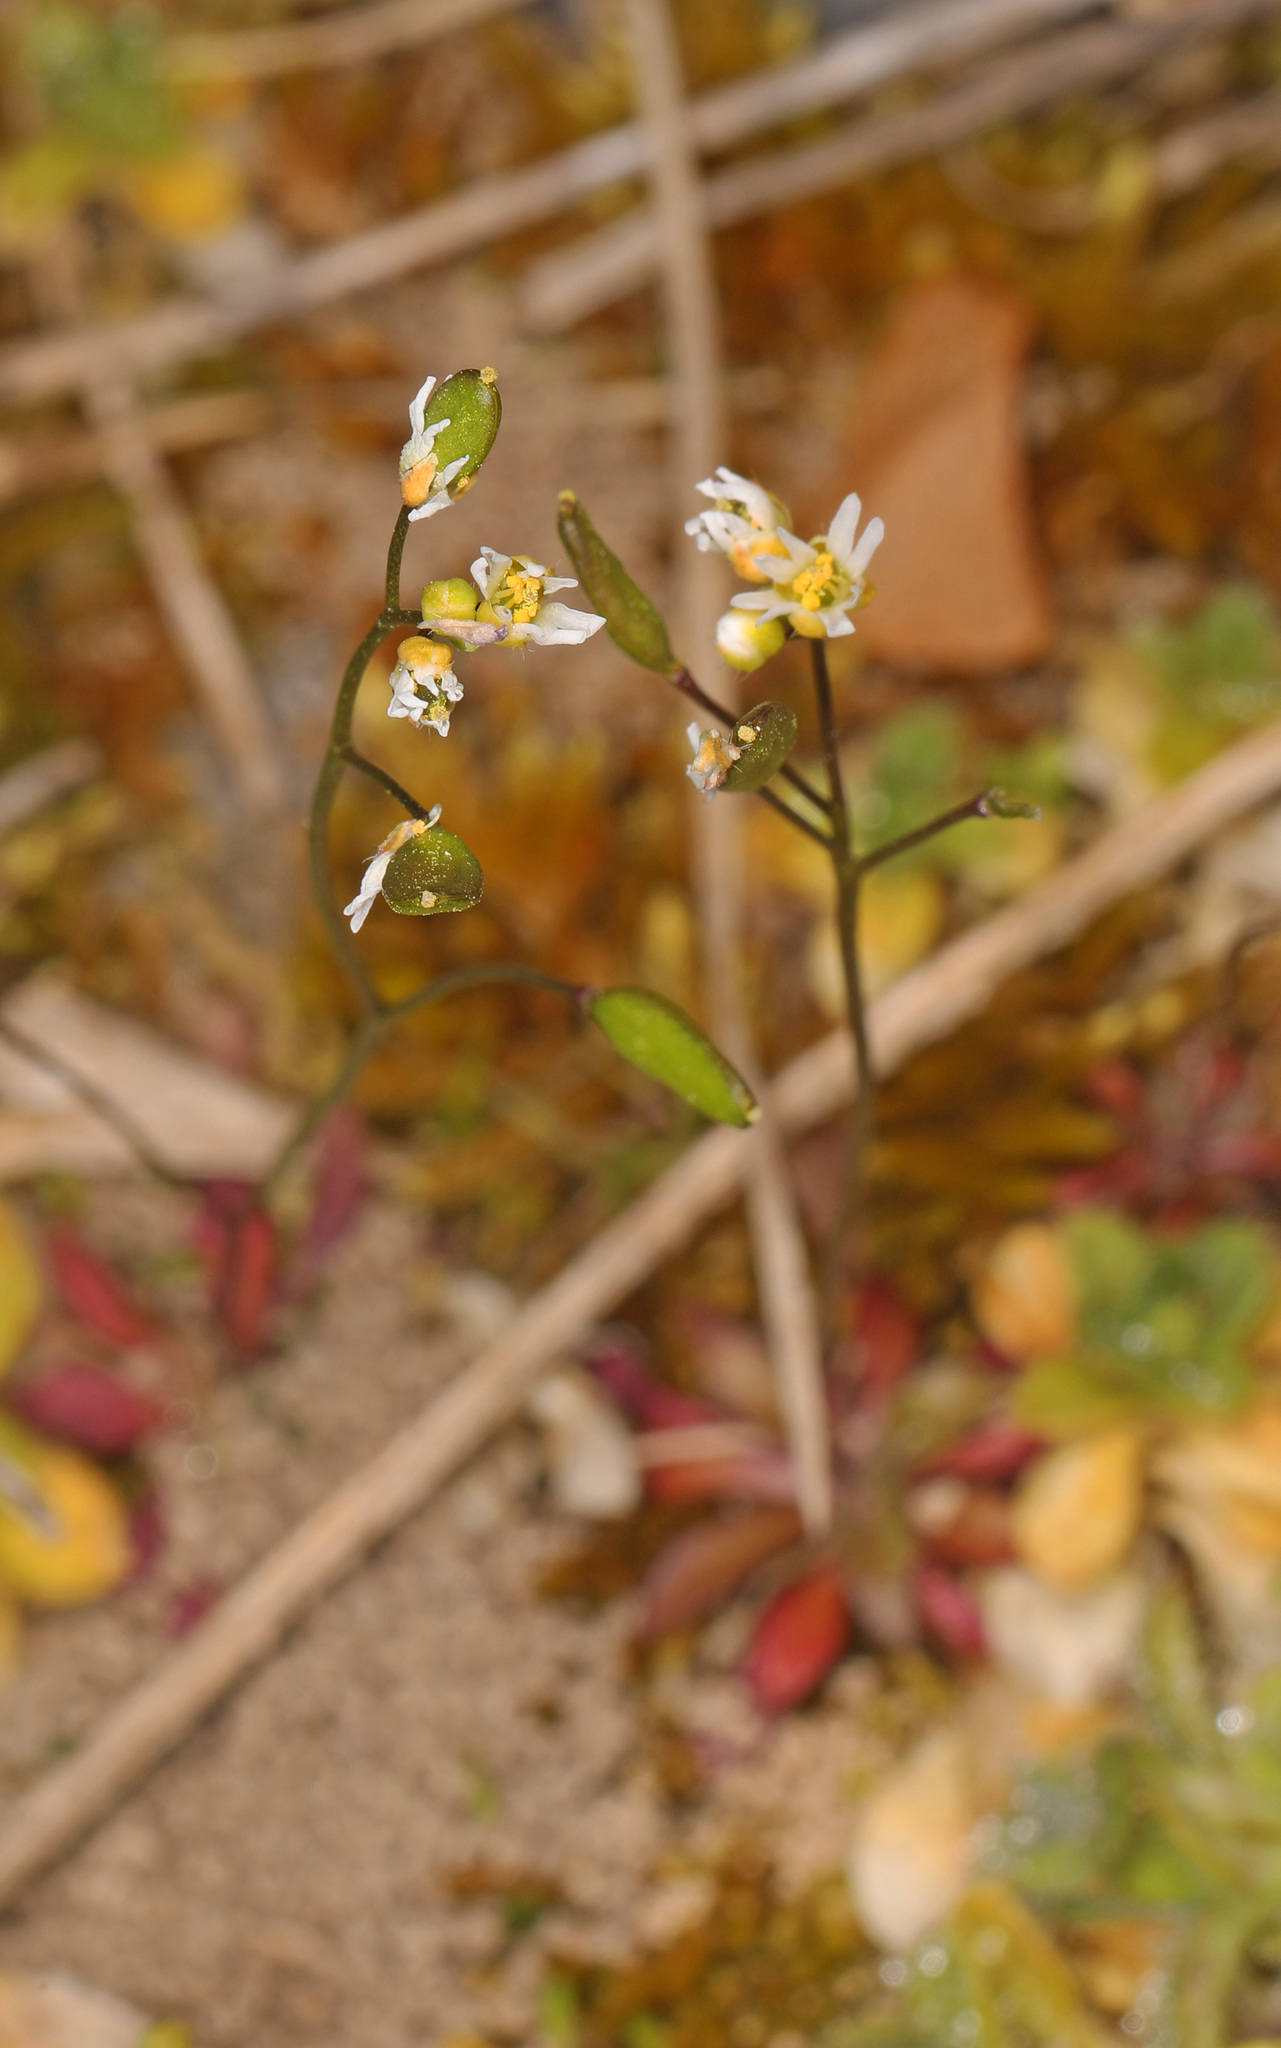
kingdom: Plantae
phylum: Tracheophyta
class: Magnoliopsida
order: Brassicales
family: Brassicaceae
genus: Draba
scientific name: Draba verna
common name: Spring draba
